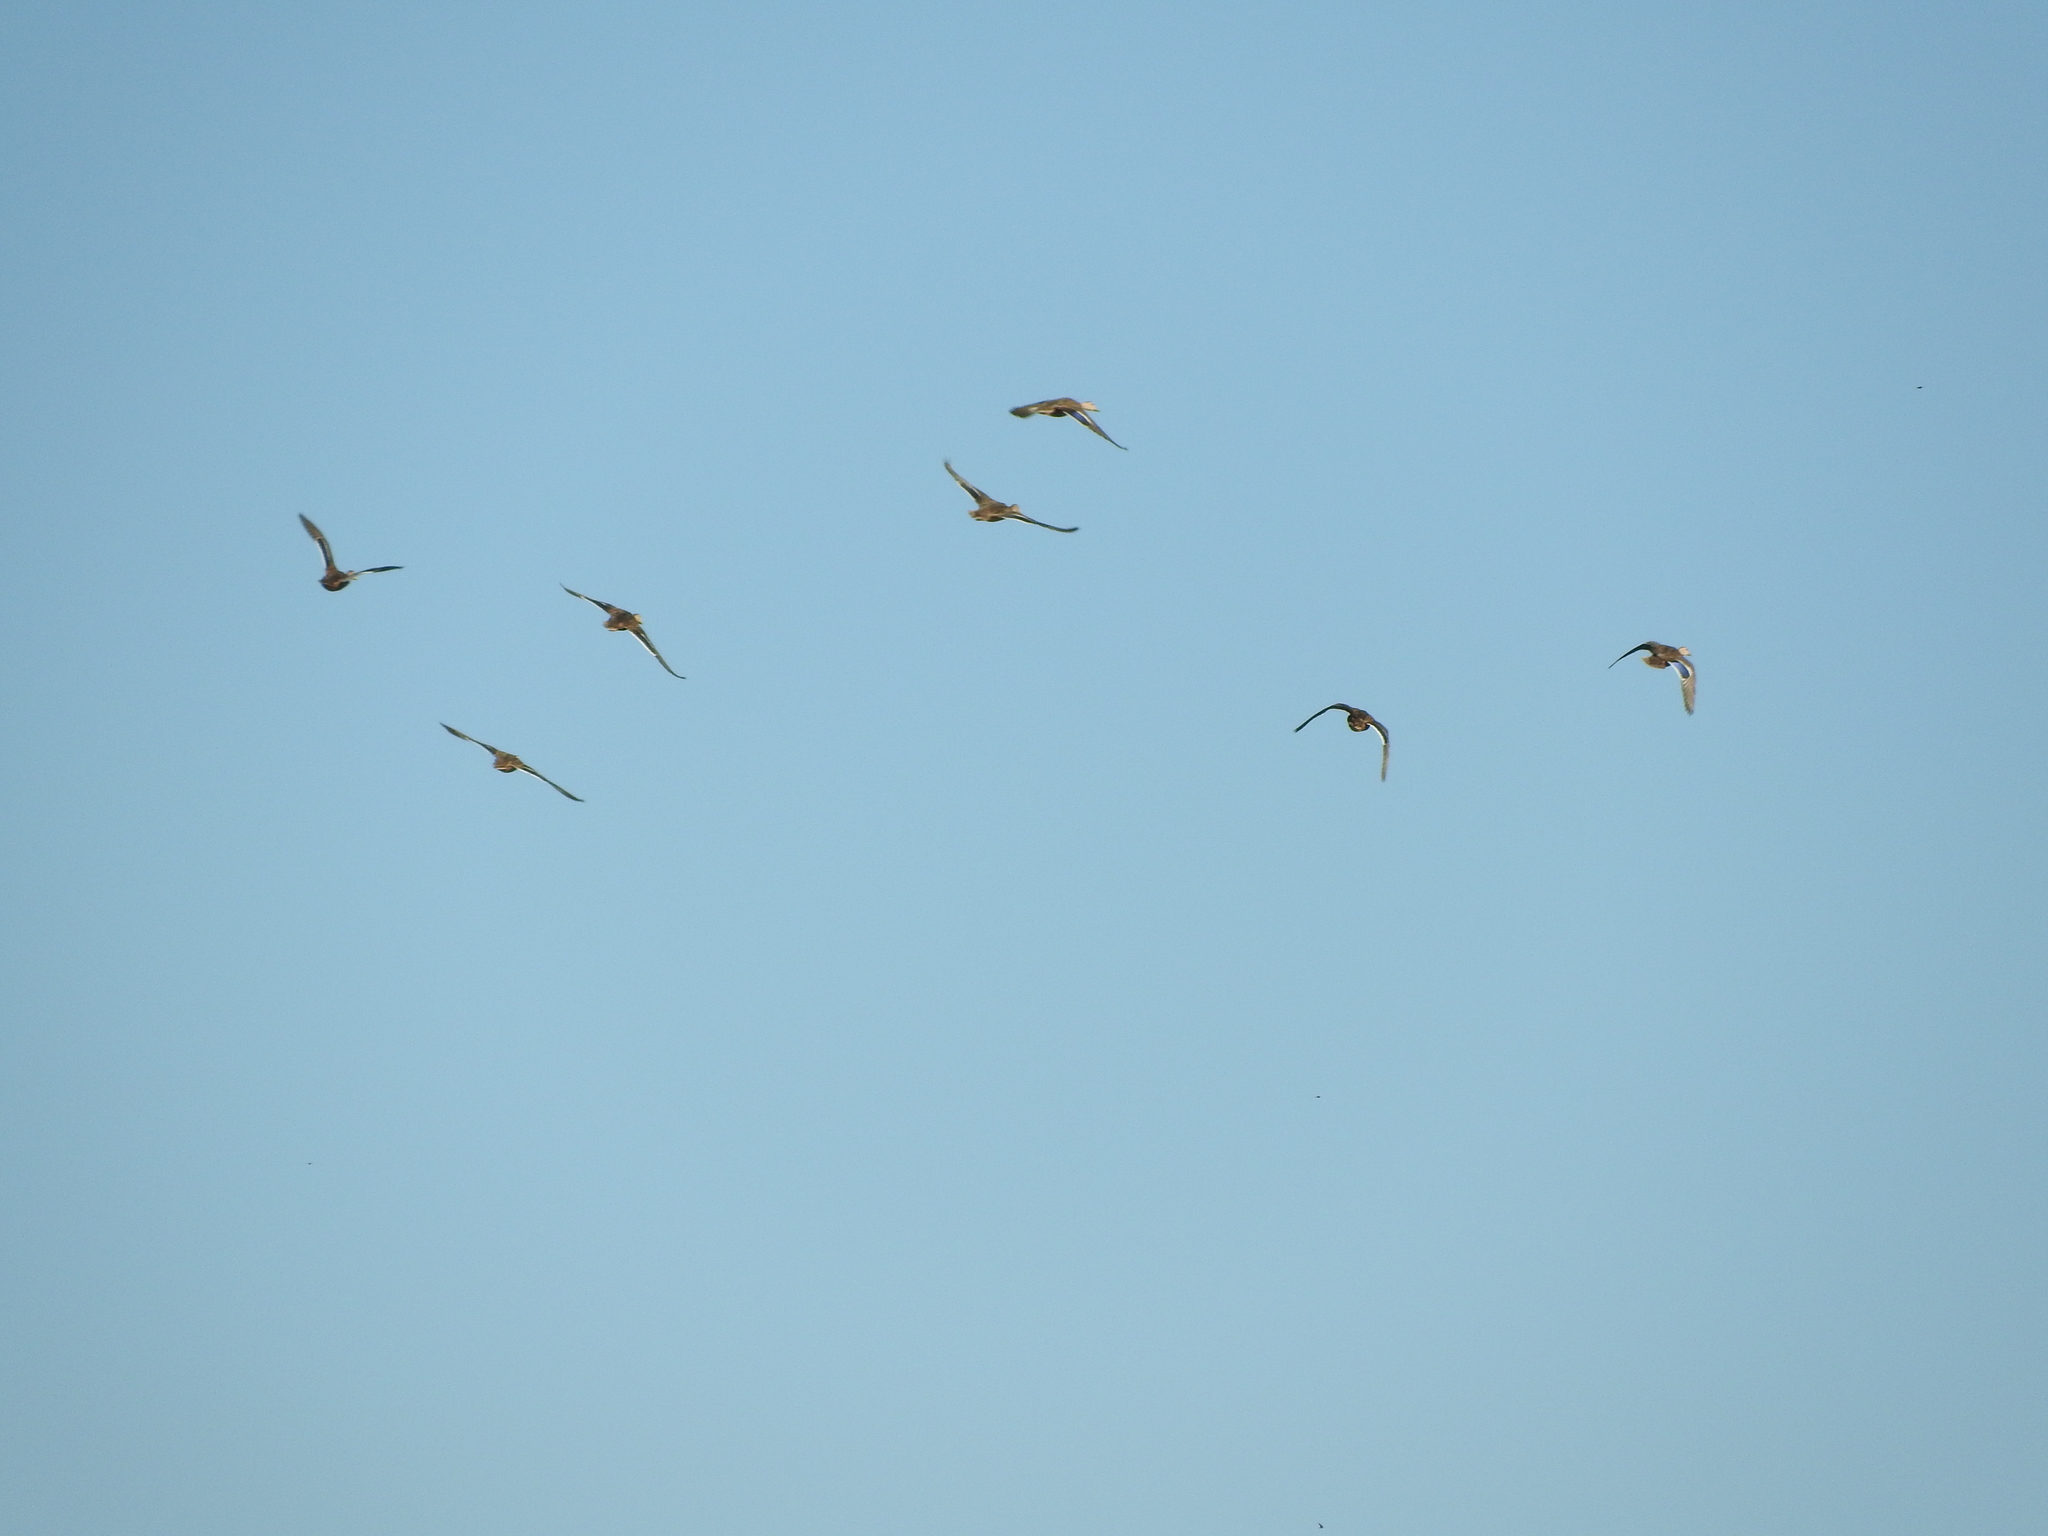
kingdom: Animalia
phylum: Chordata
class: Aves
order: Anseriformes
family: Anatidae
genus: Anas
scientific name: Anas diazi
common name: Mexican duck
